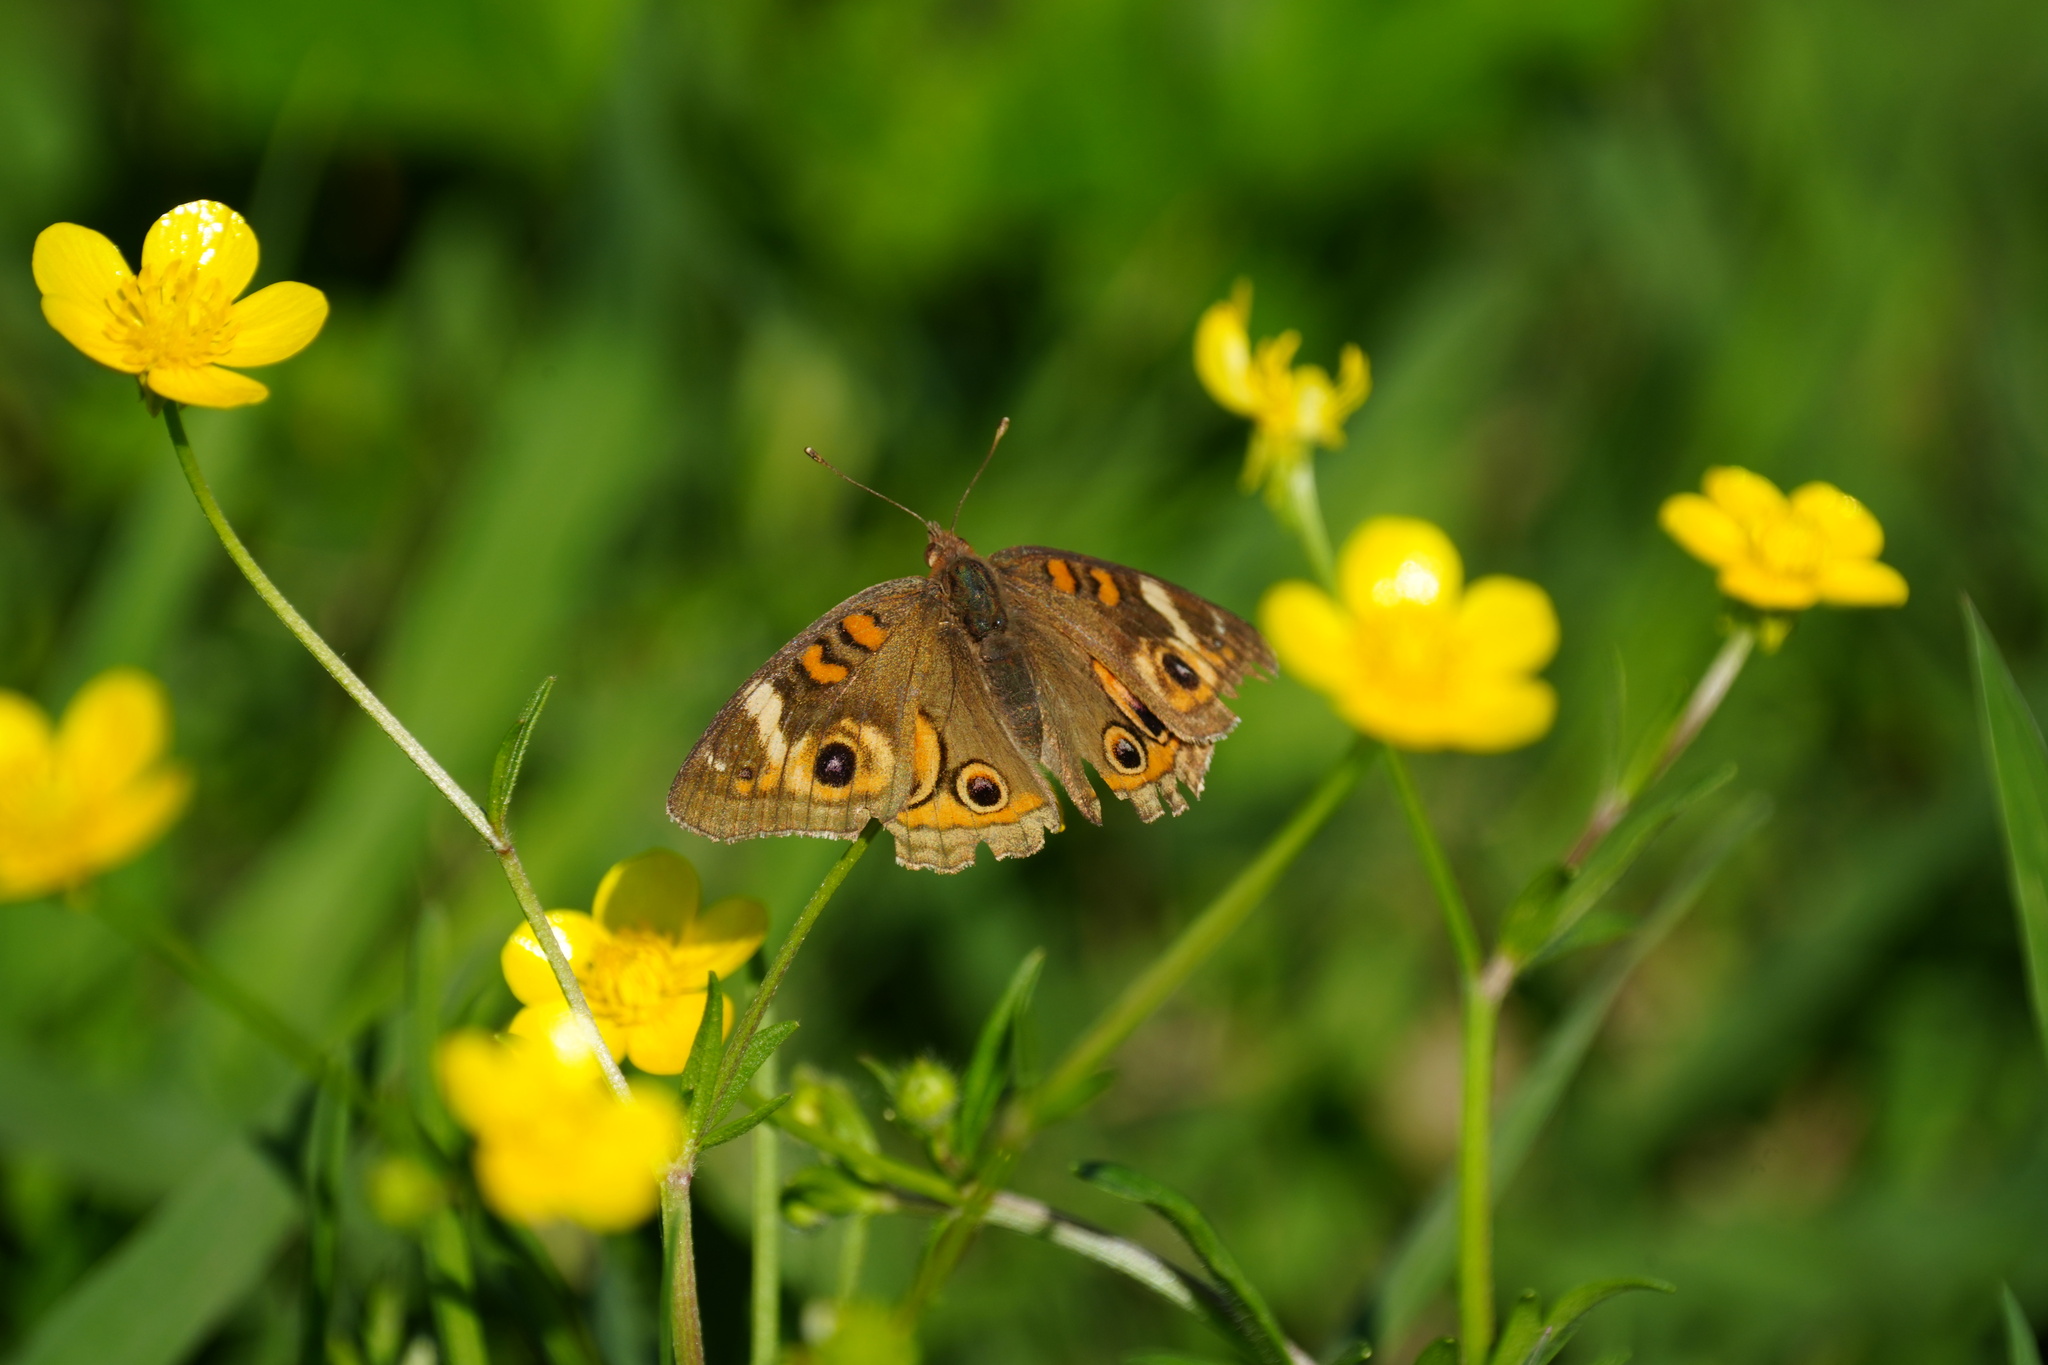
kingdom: Animalia
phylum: Arthropoda
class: Insecta
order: Lepidoptera
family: Nymphalidae
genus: Junonia
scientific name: Junonia coenia
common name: Common buckeye
